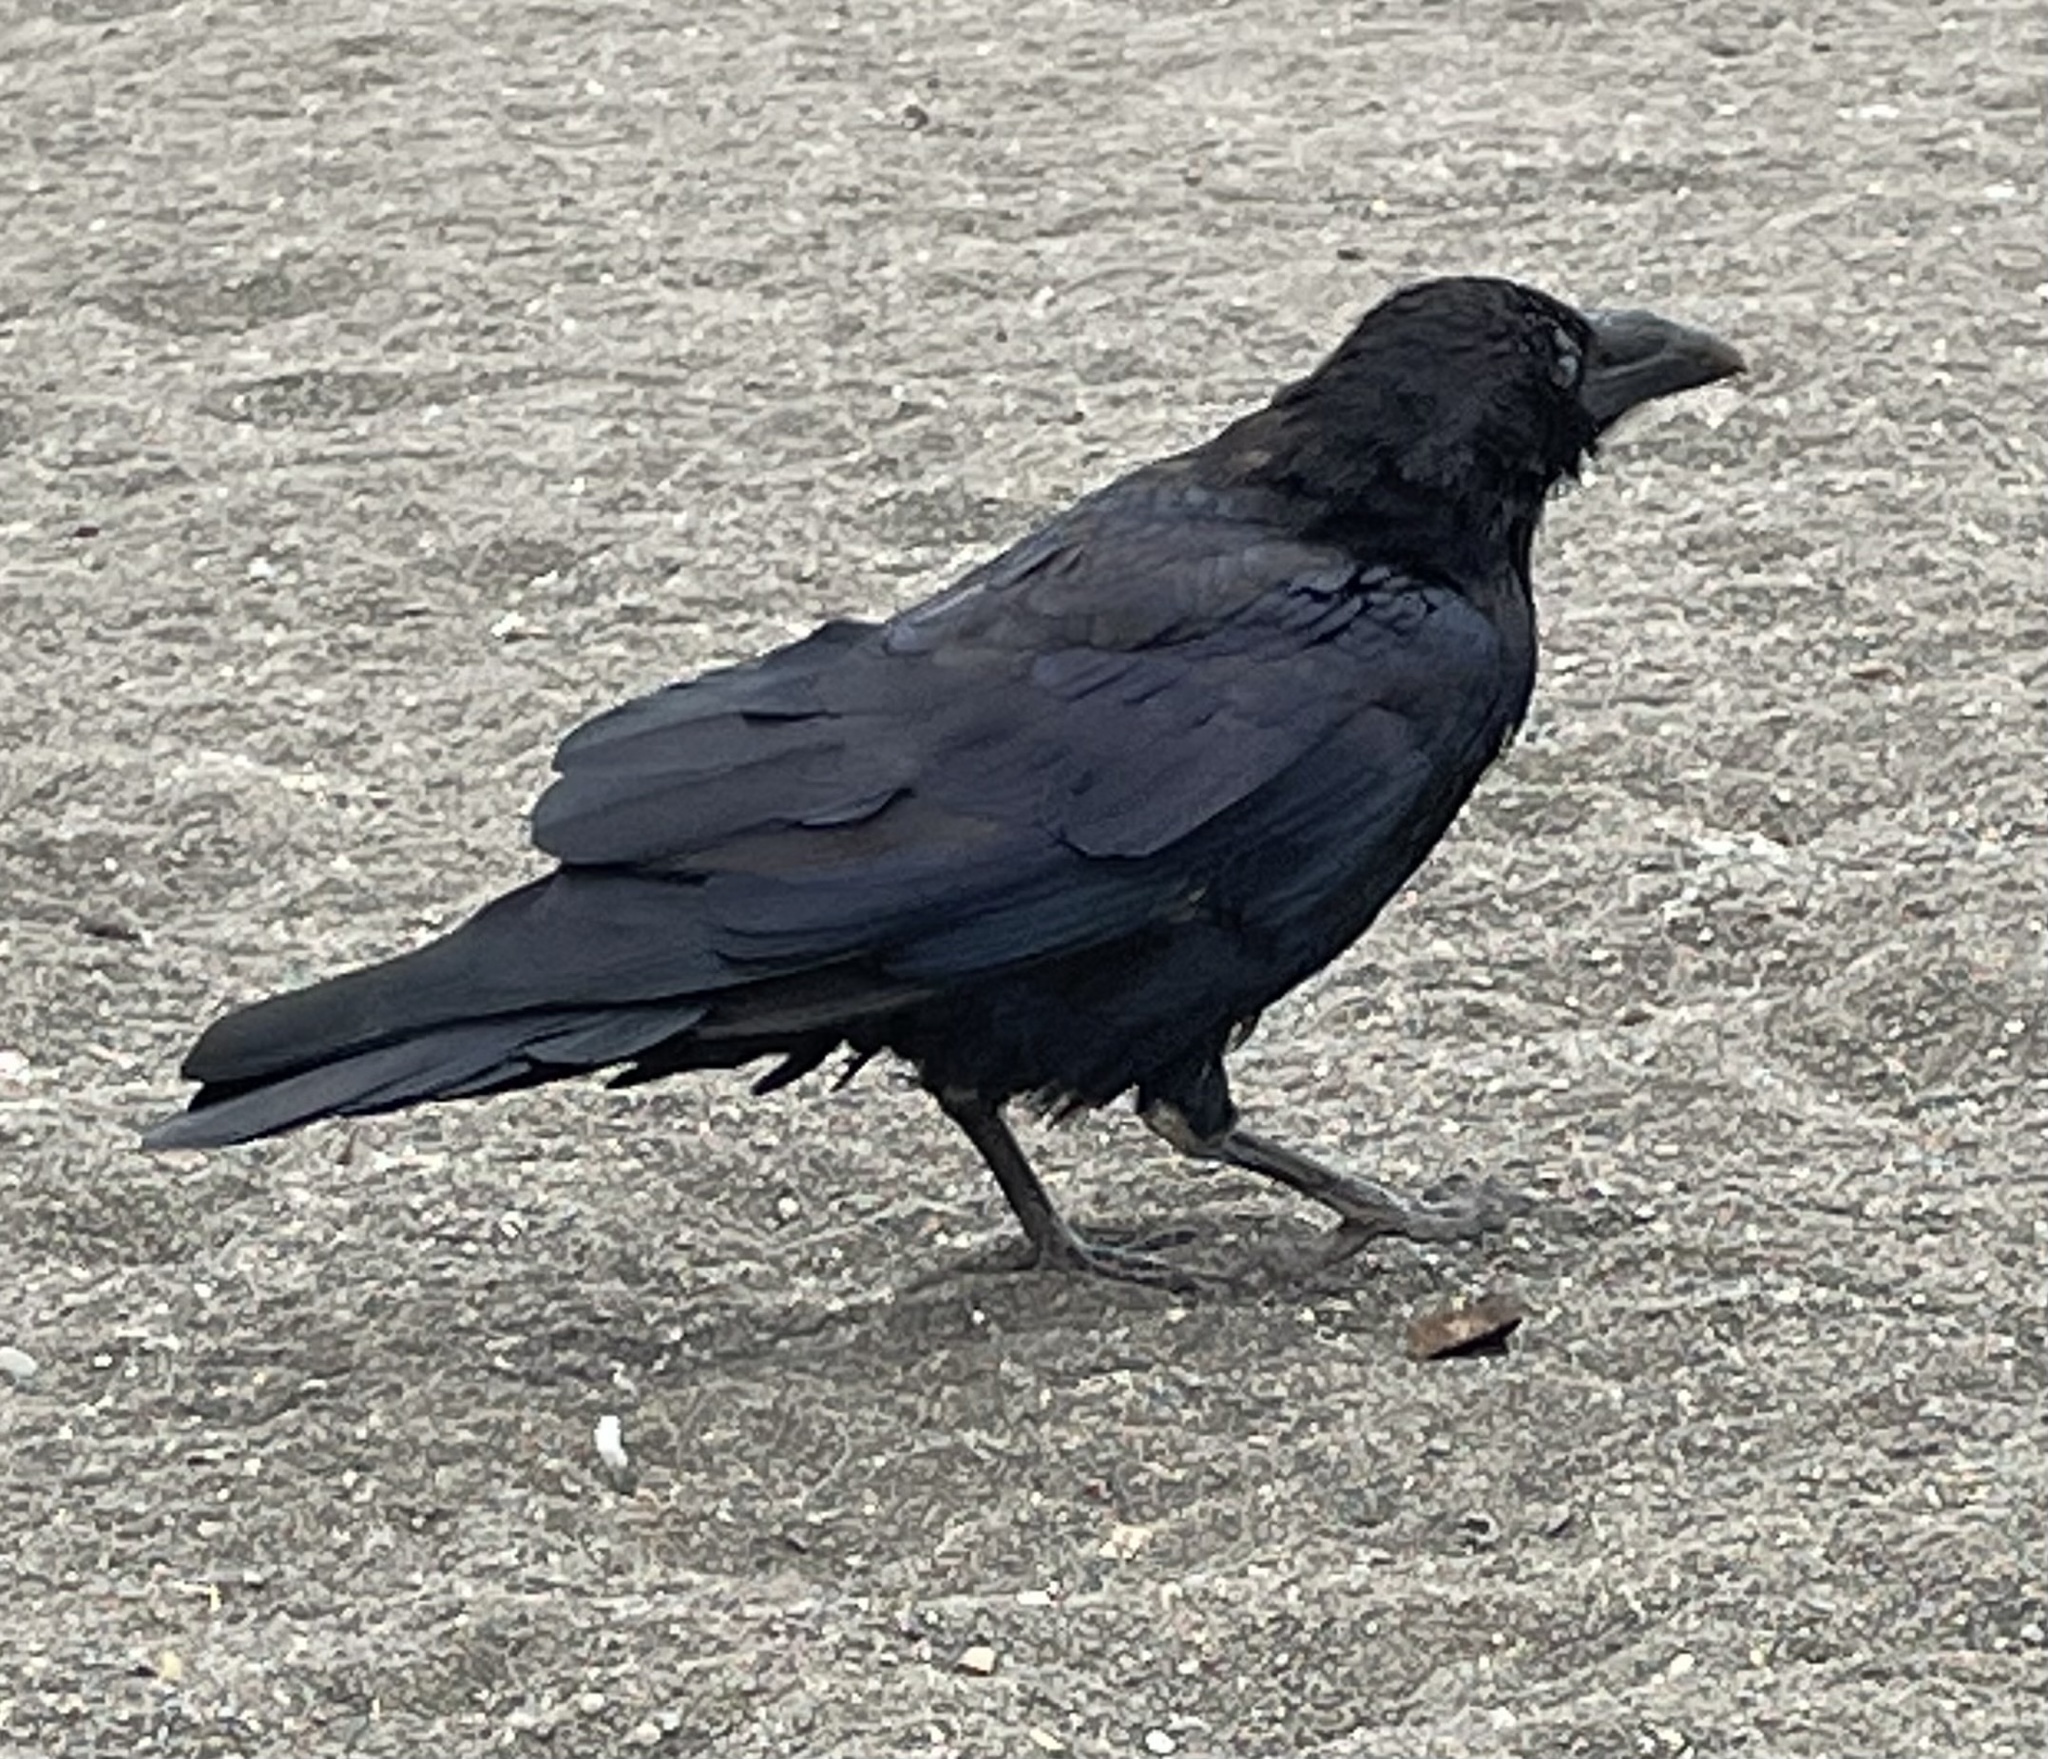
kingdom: Animalia
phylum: Chordata
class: Aves
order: Passeriformes
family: Corvidae
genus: Corvus
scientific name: Corvus corax
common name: Common raven
